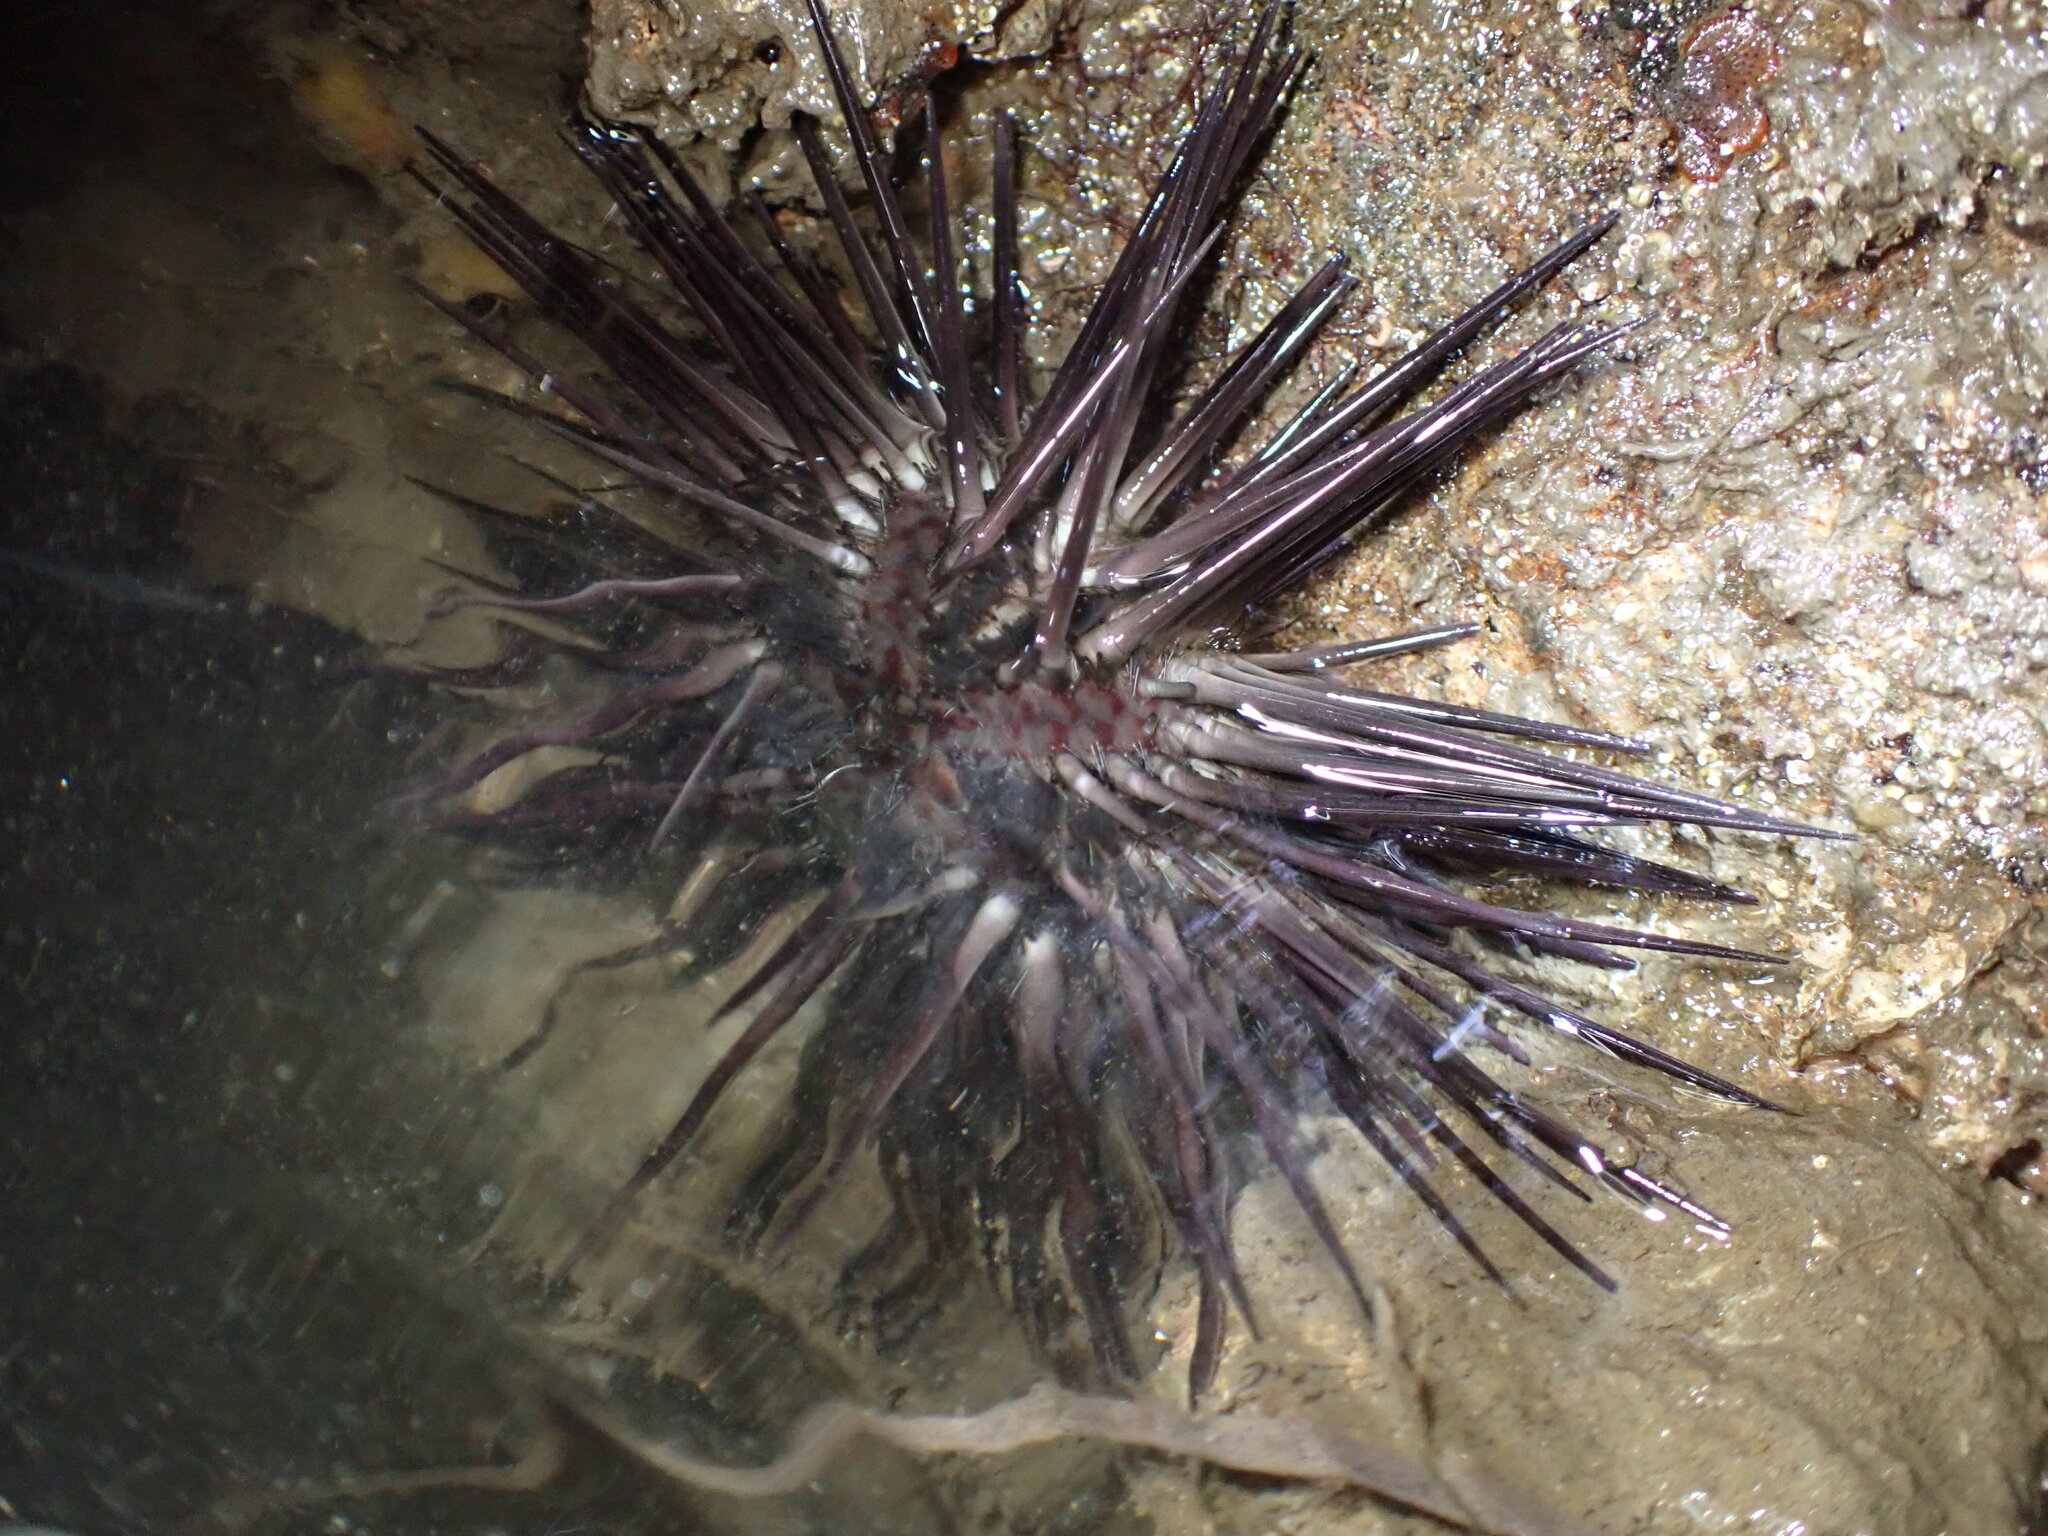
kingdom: Animalia
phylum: Echinodermata
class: Echinoidea
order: Arbacioida
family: Arbaciidae
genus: Arbacia
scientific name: Arbacia stellata
